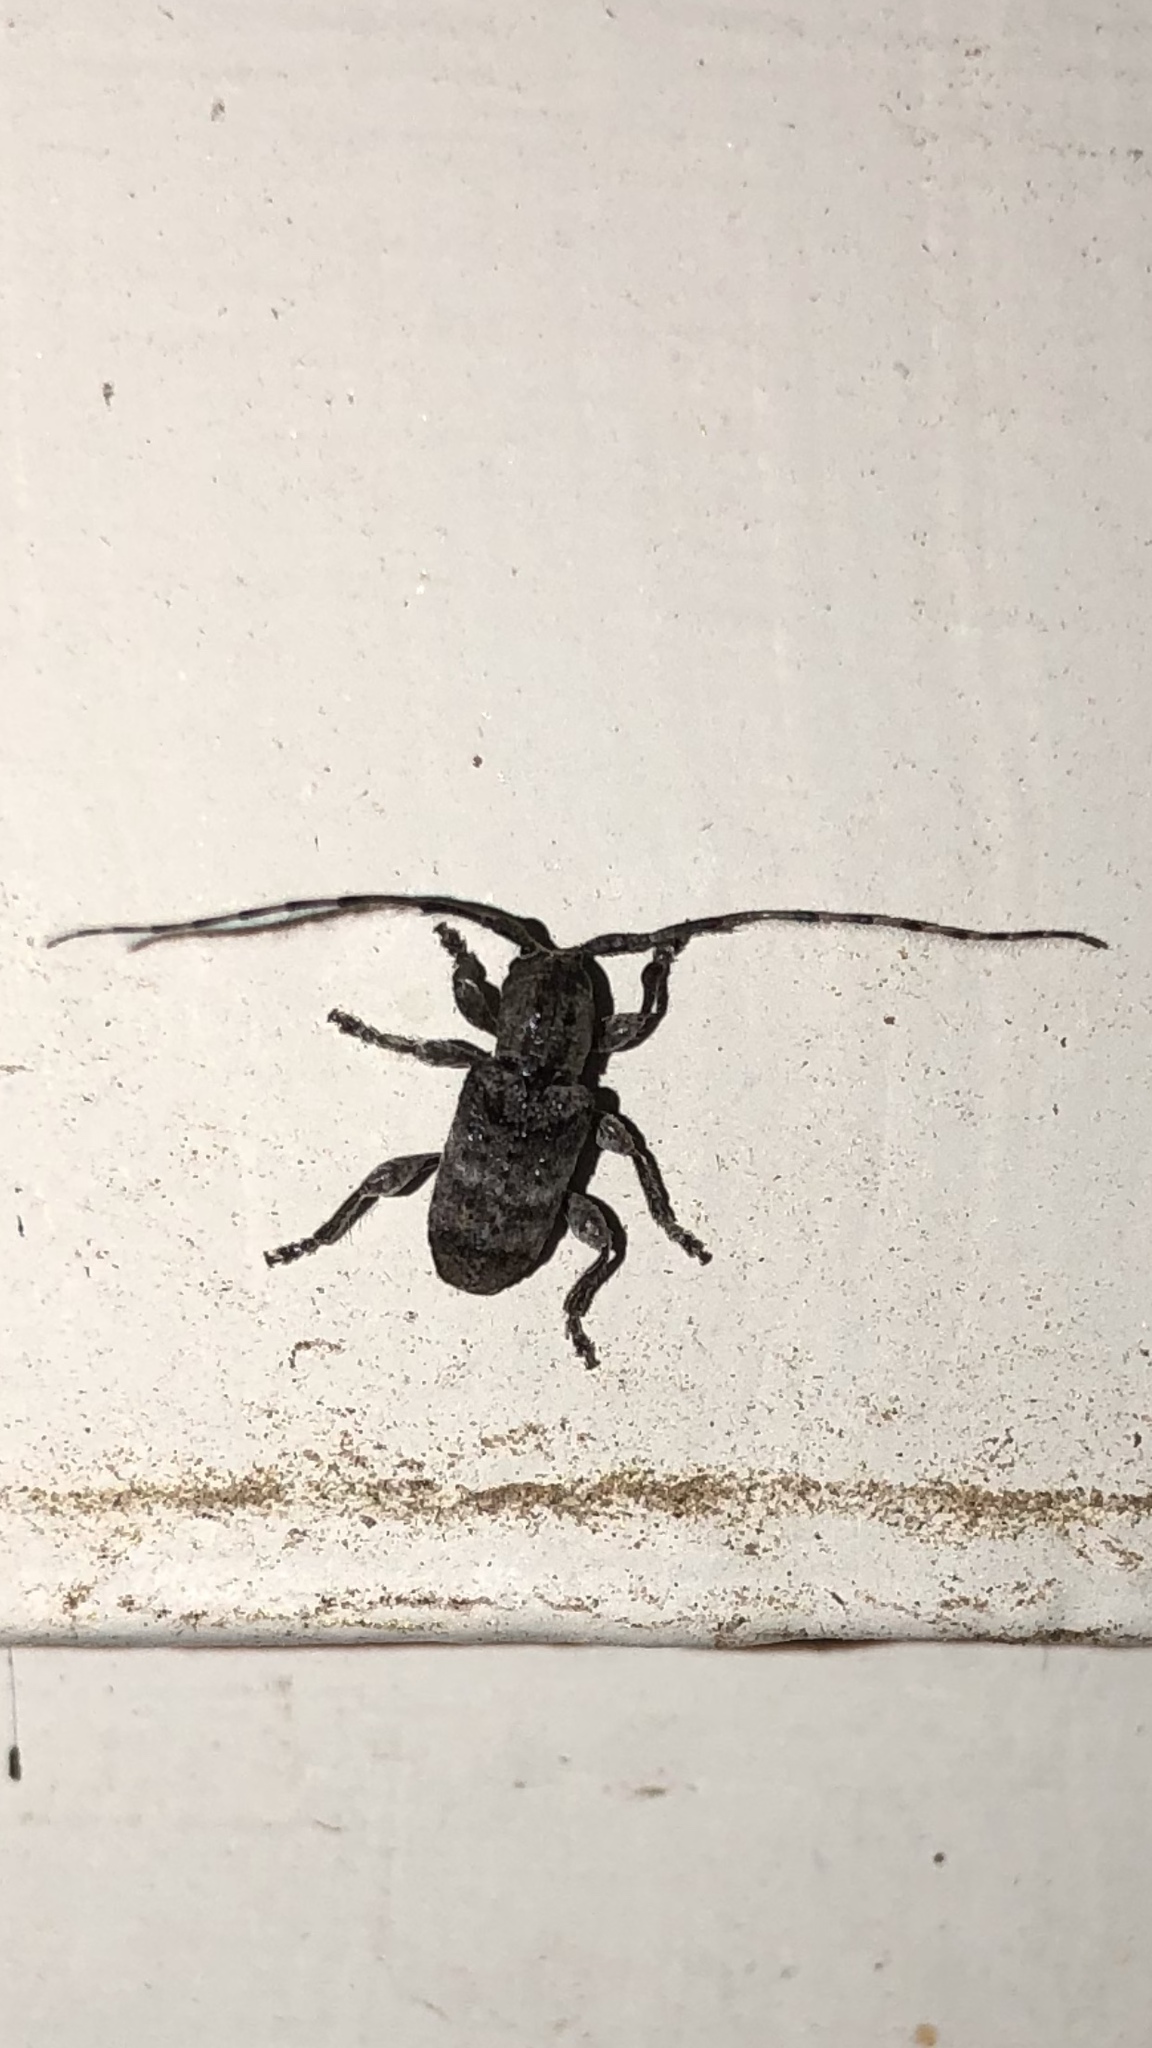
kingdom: Animalia
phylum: Arthropoda
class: Insecta
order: Coleoptera
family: Cerambycidae
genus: Ecyrus
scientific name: Ecyrus dasycerus
